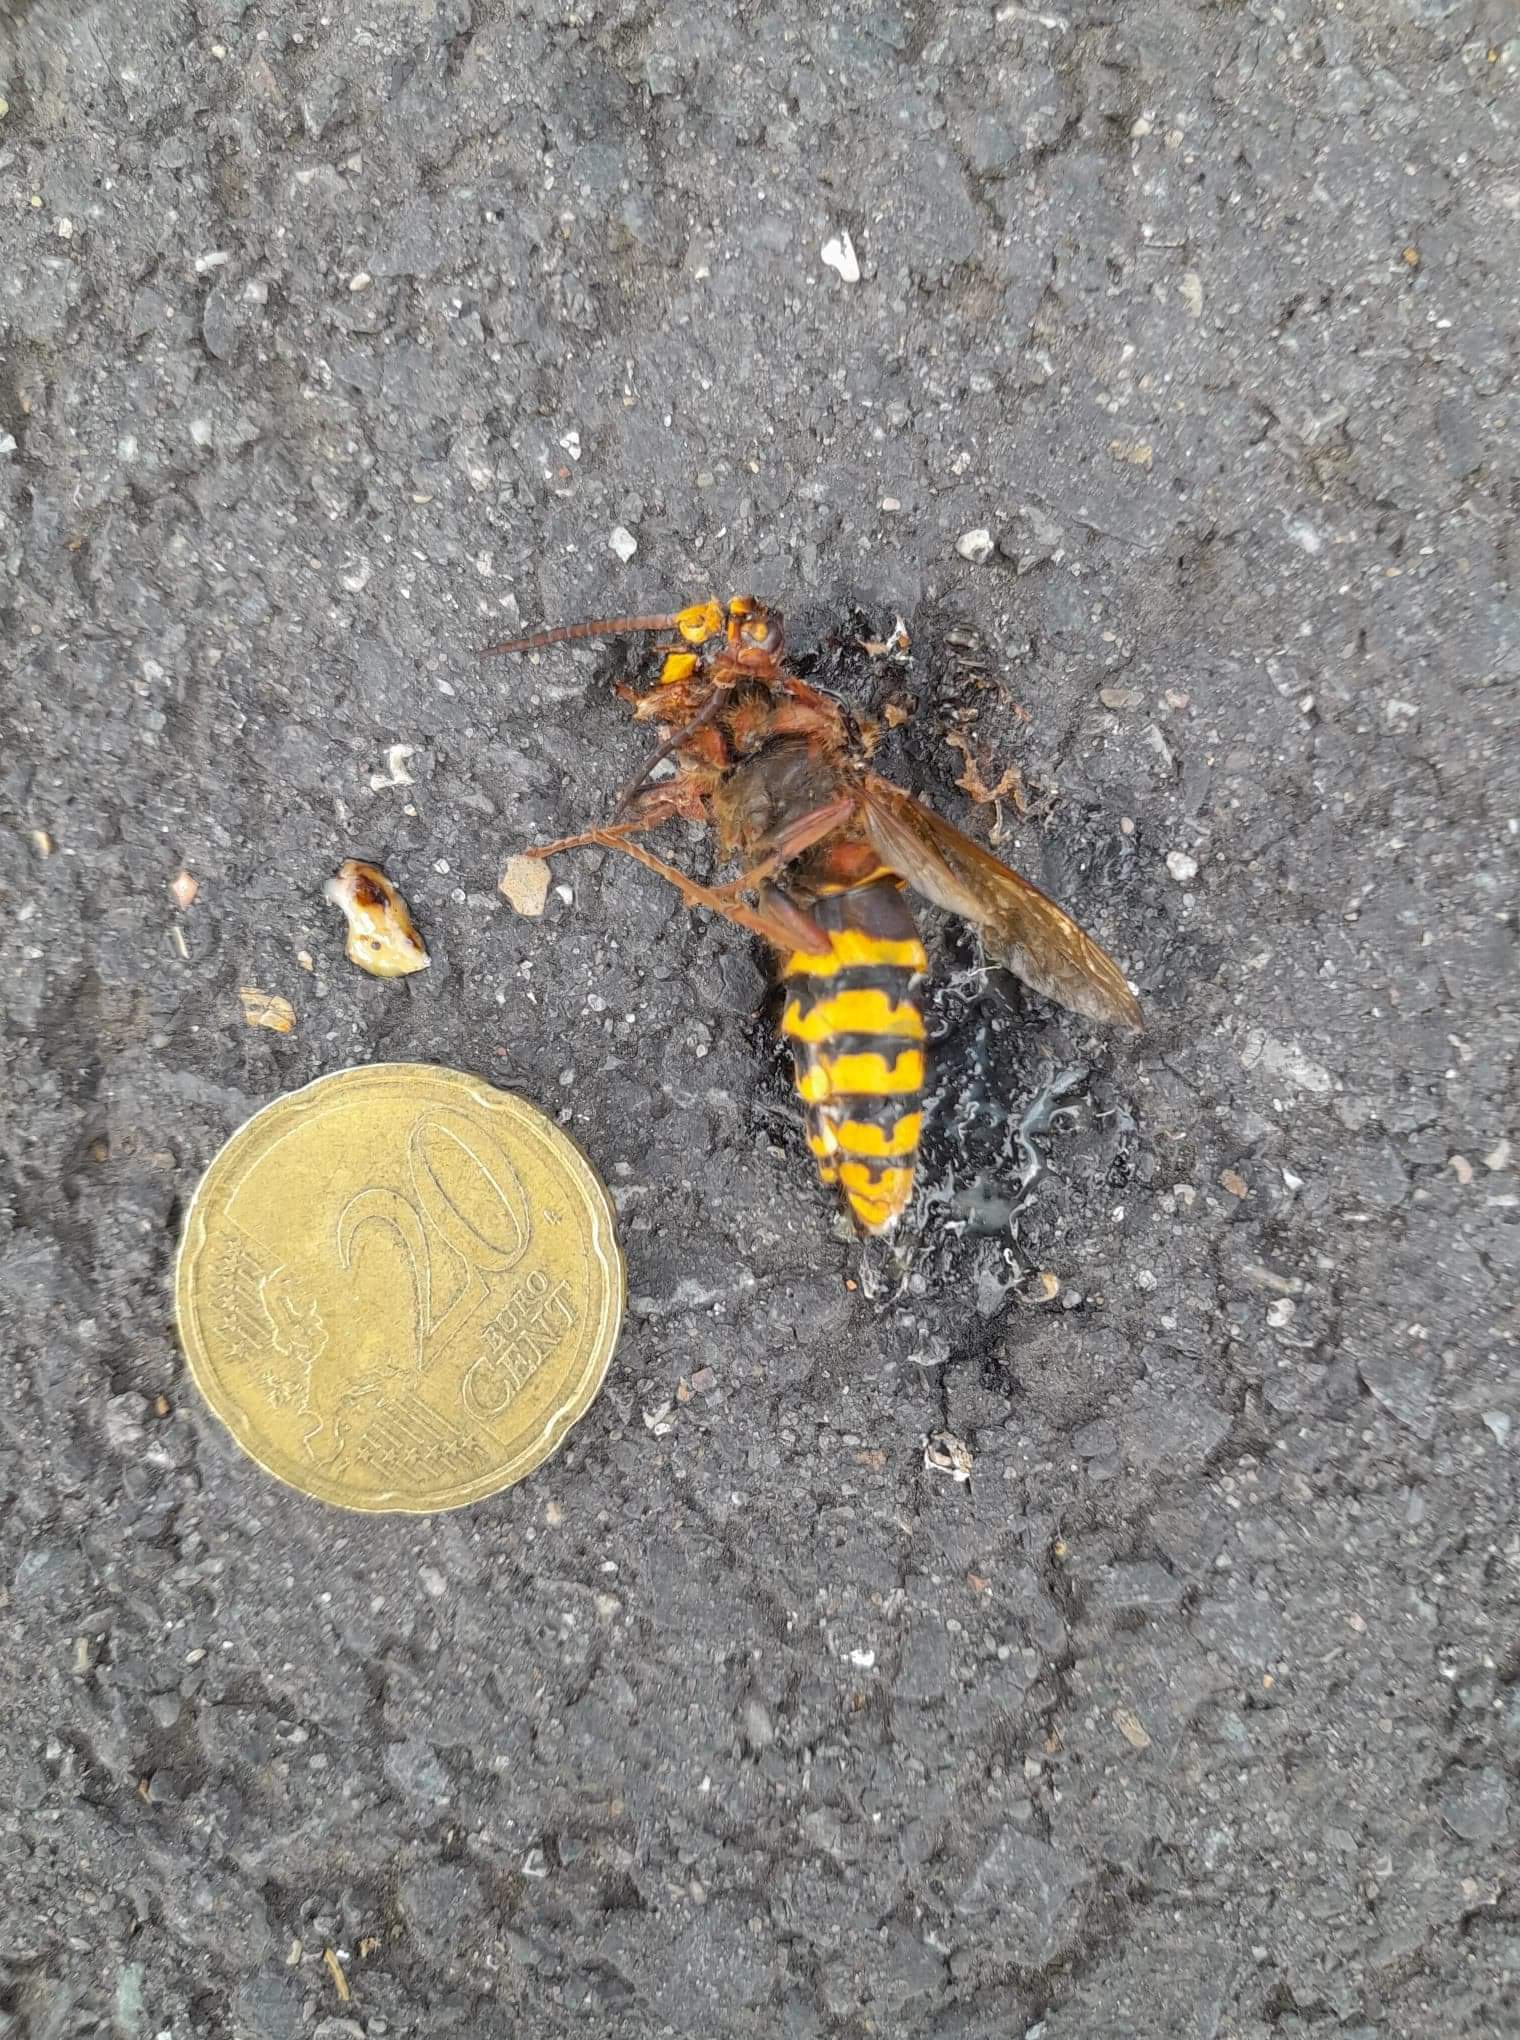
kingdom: Animalia
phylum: Arthropoda
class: Insecta
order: Hymenoptera
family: Vespidae
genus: Vespa
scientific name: Vespa crabro
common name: Hornet
